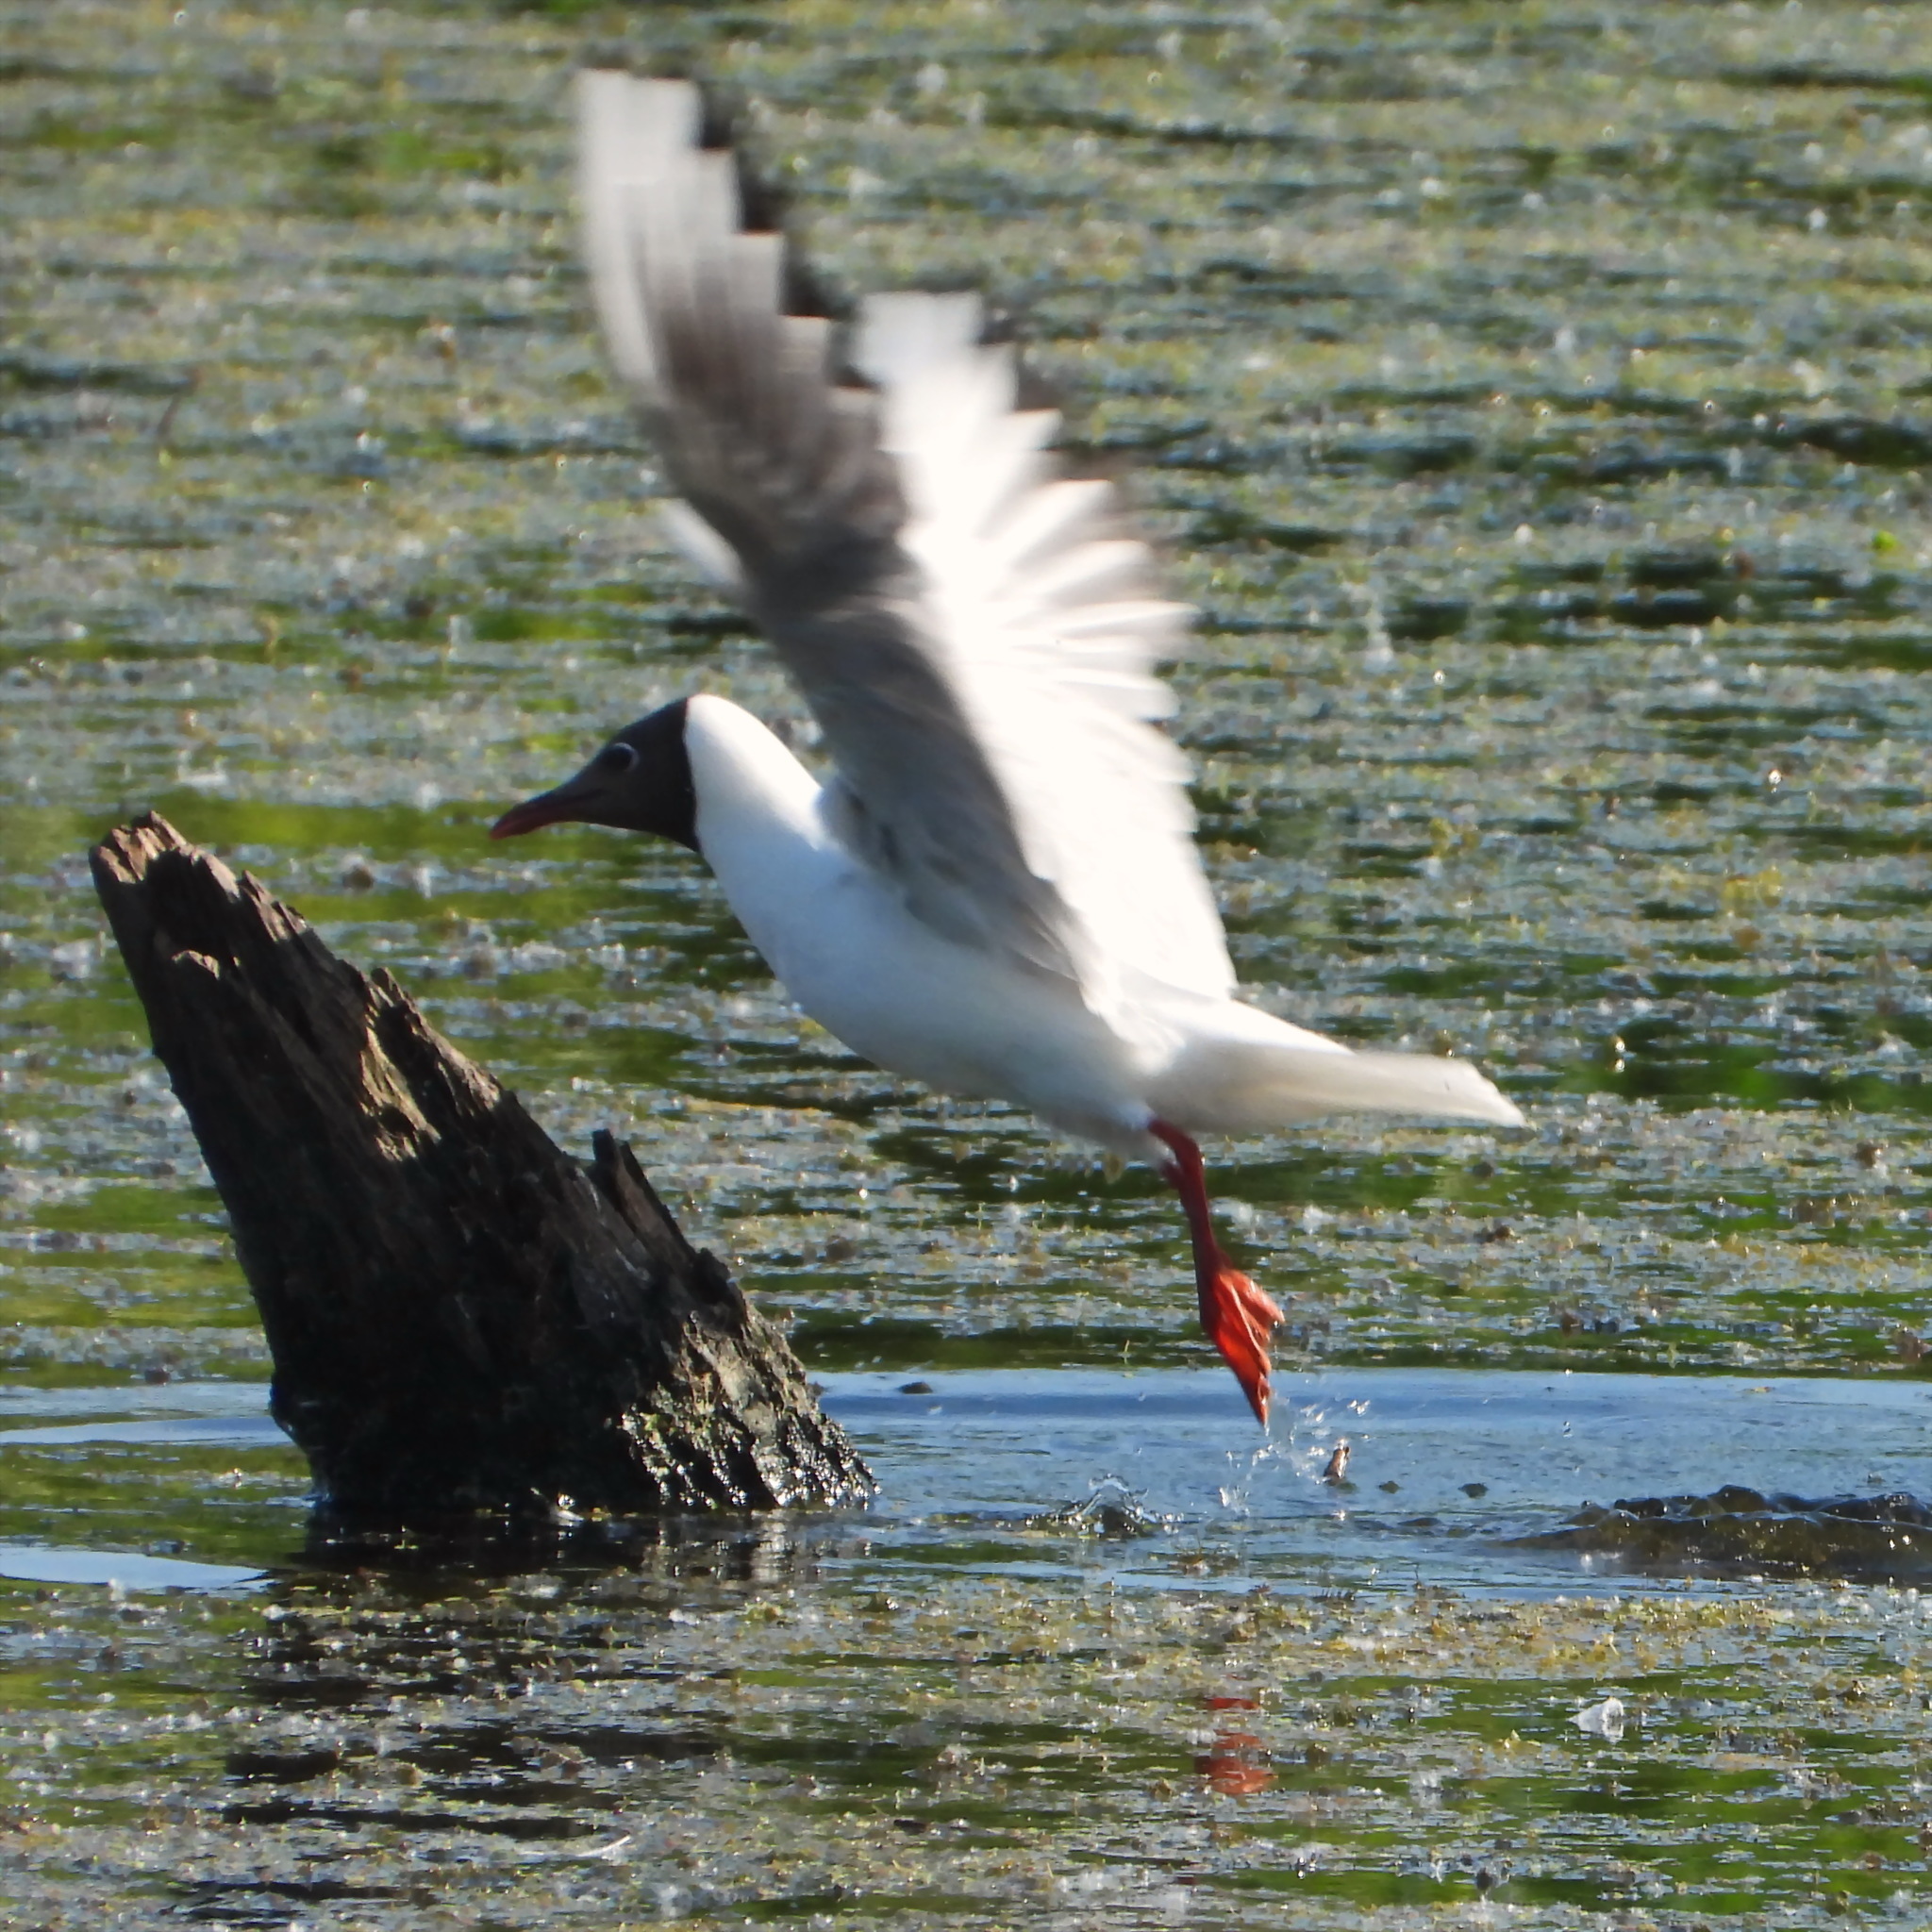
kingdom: Animalia
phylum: Chordata
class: Aves
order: Charadriiformes
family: Laridae
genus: Chroicocephalus
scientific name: Chroicocephalus ridibundus
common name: Black-headed gull
